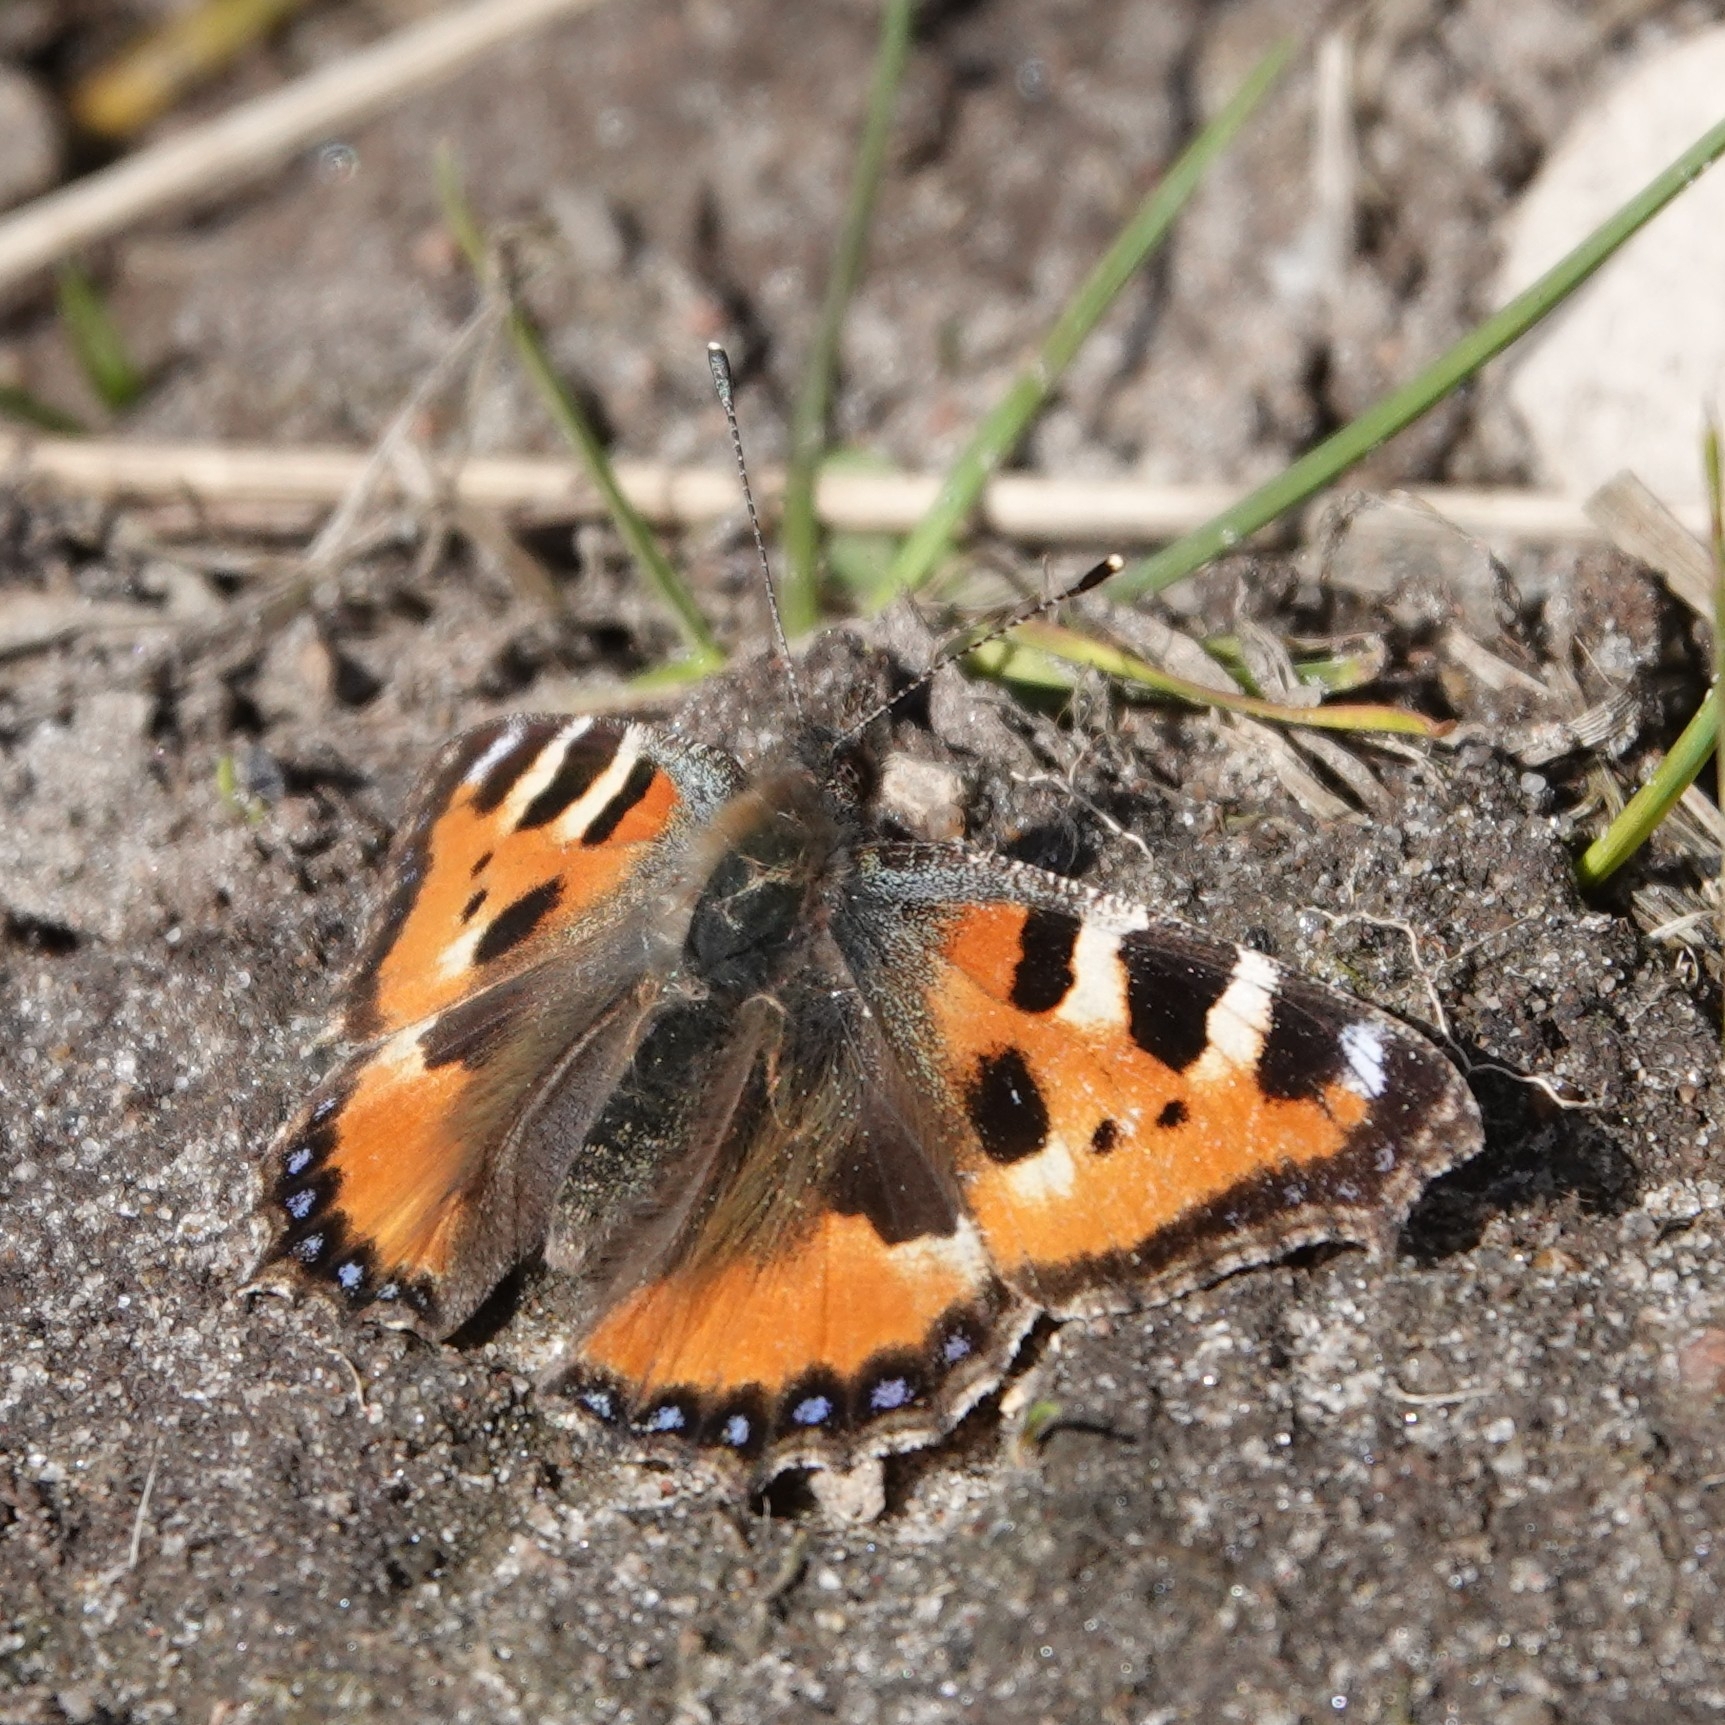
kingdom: Animalia
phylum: Arthropoda
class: Insecta
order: Lepidoptera
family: Nymphalidae
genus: Aglais
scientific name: Aglais urticae
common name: Small tortoiseshell
